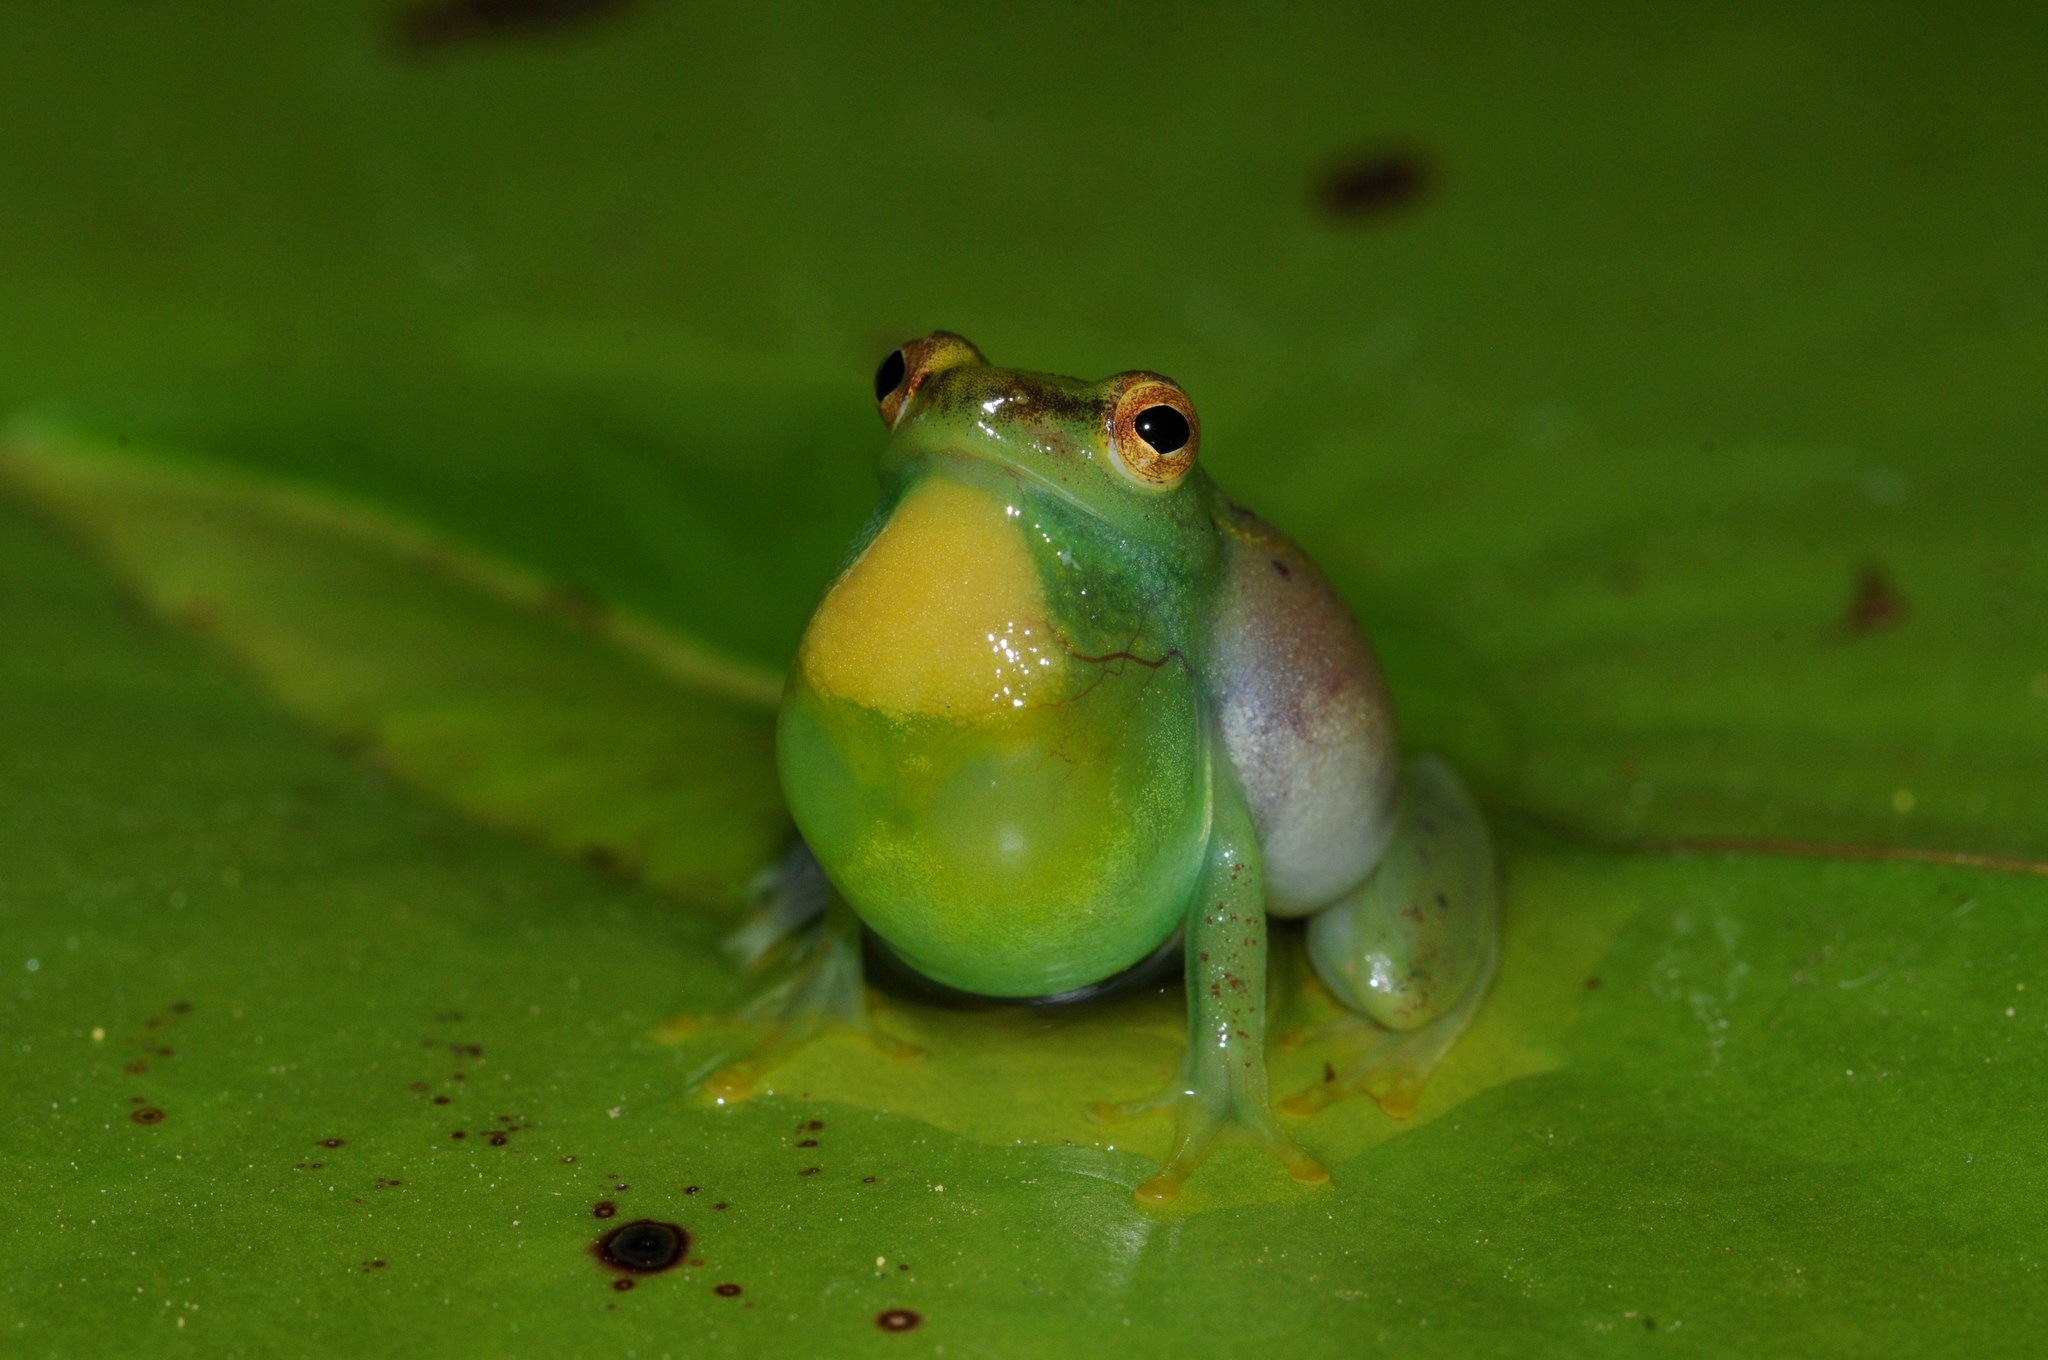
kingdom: Animalia
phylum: Chordata
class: Amphibia
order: Anura
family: Hyperoliidae
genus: Hyperolius
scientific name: Hyperolius pusillus
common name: Water lily reed frog
